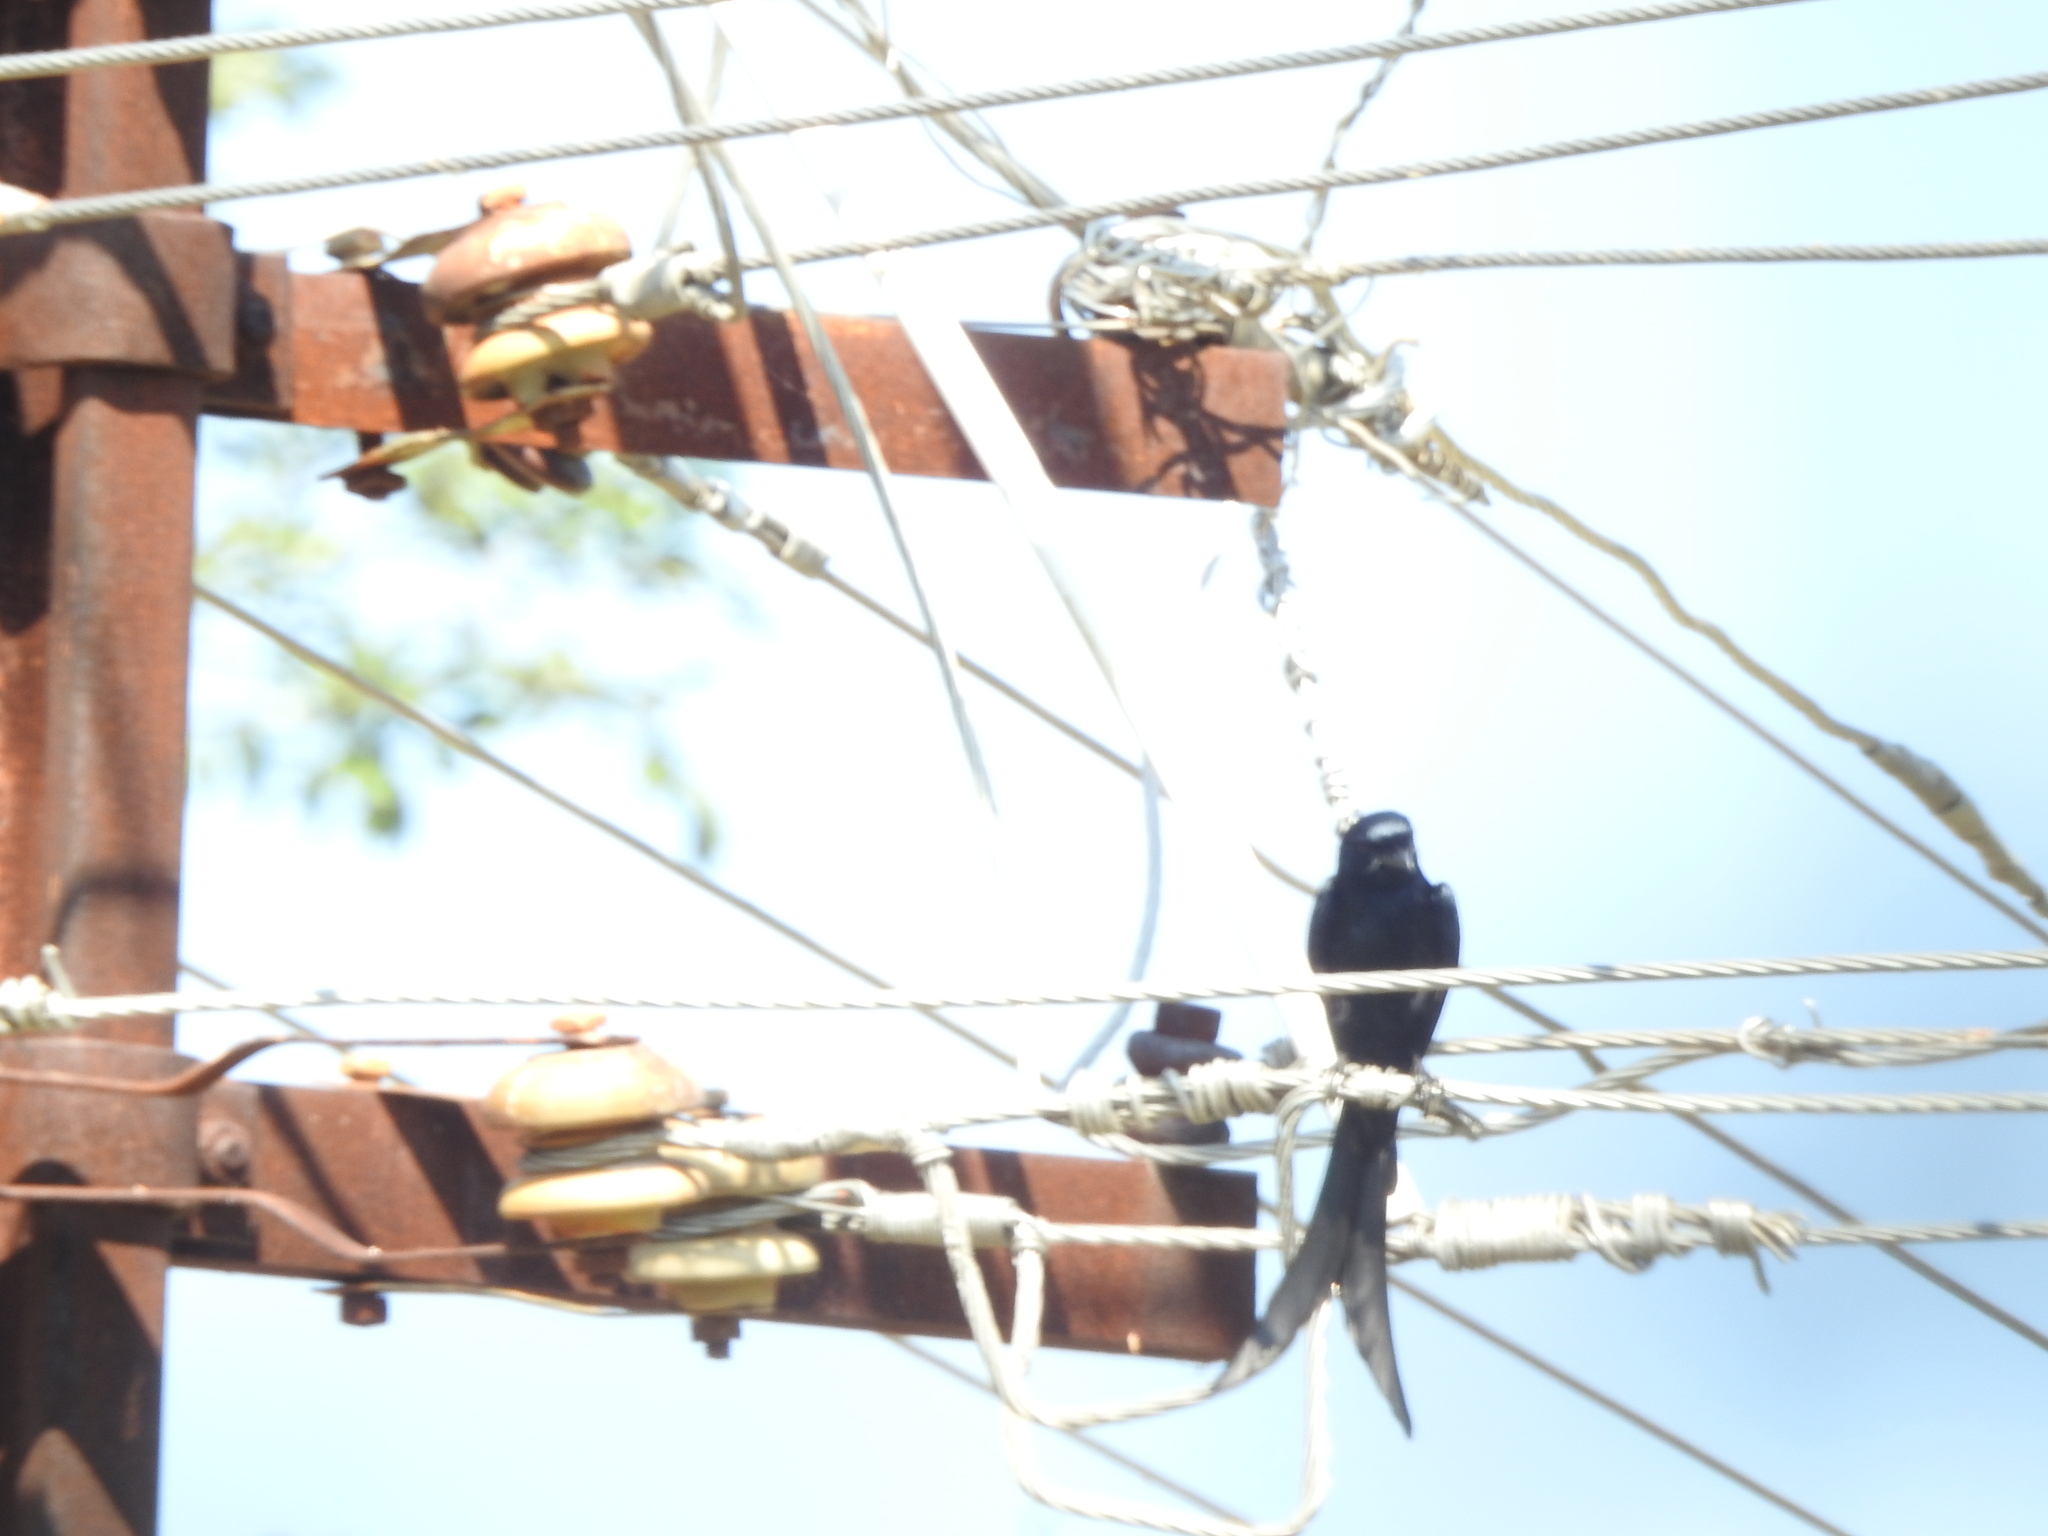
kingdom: Animalia
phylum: Chordata
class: Aves
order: Passeriformes
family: Dicruridae
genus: Dicrurus
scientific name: Dicrurus macrocercus
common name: Black drongo
